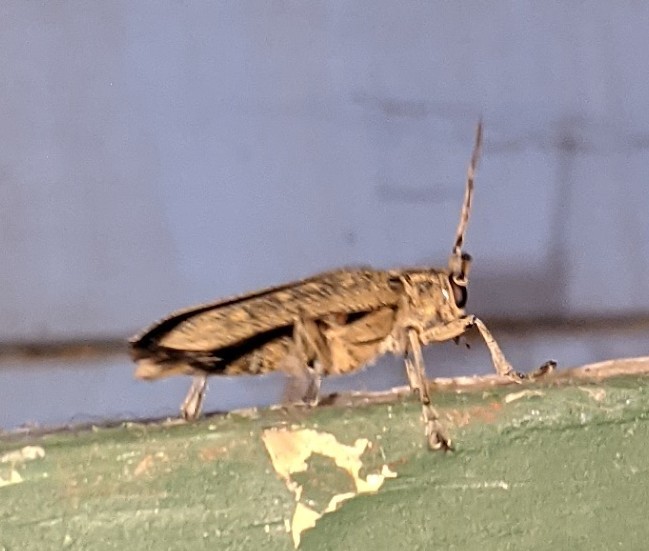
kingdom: Animalia
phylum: Arthropoda
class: Insecta
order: Coleoptera
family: Cerambycidae
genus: Saperda
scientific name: Saperda calcarata
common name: Poplar borer
